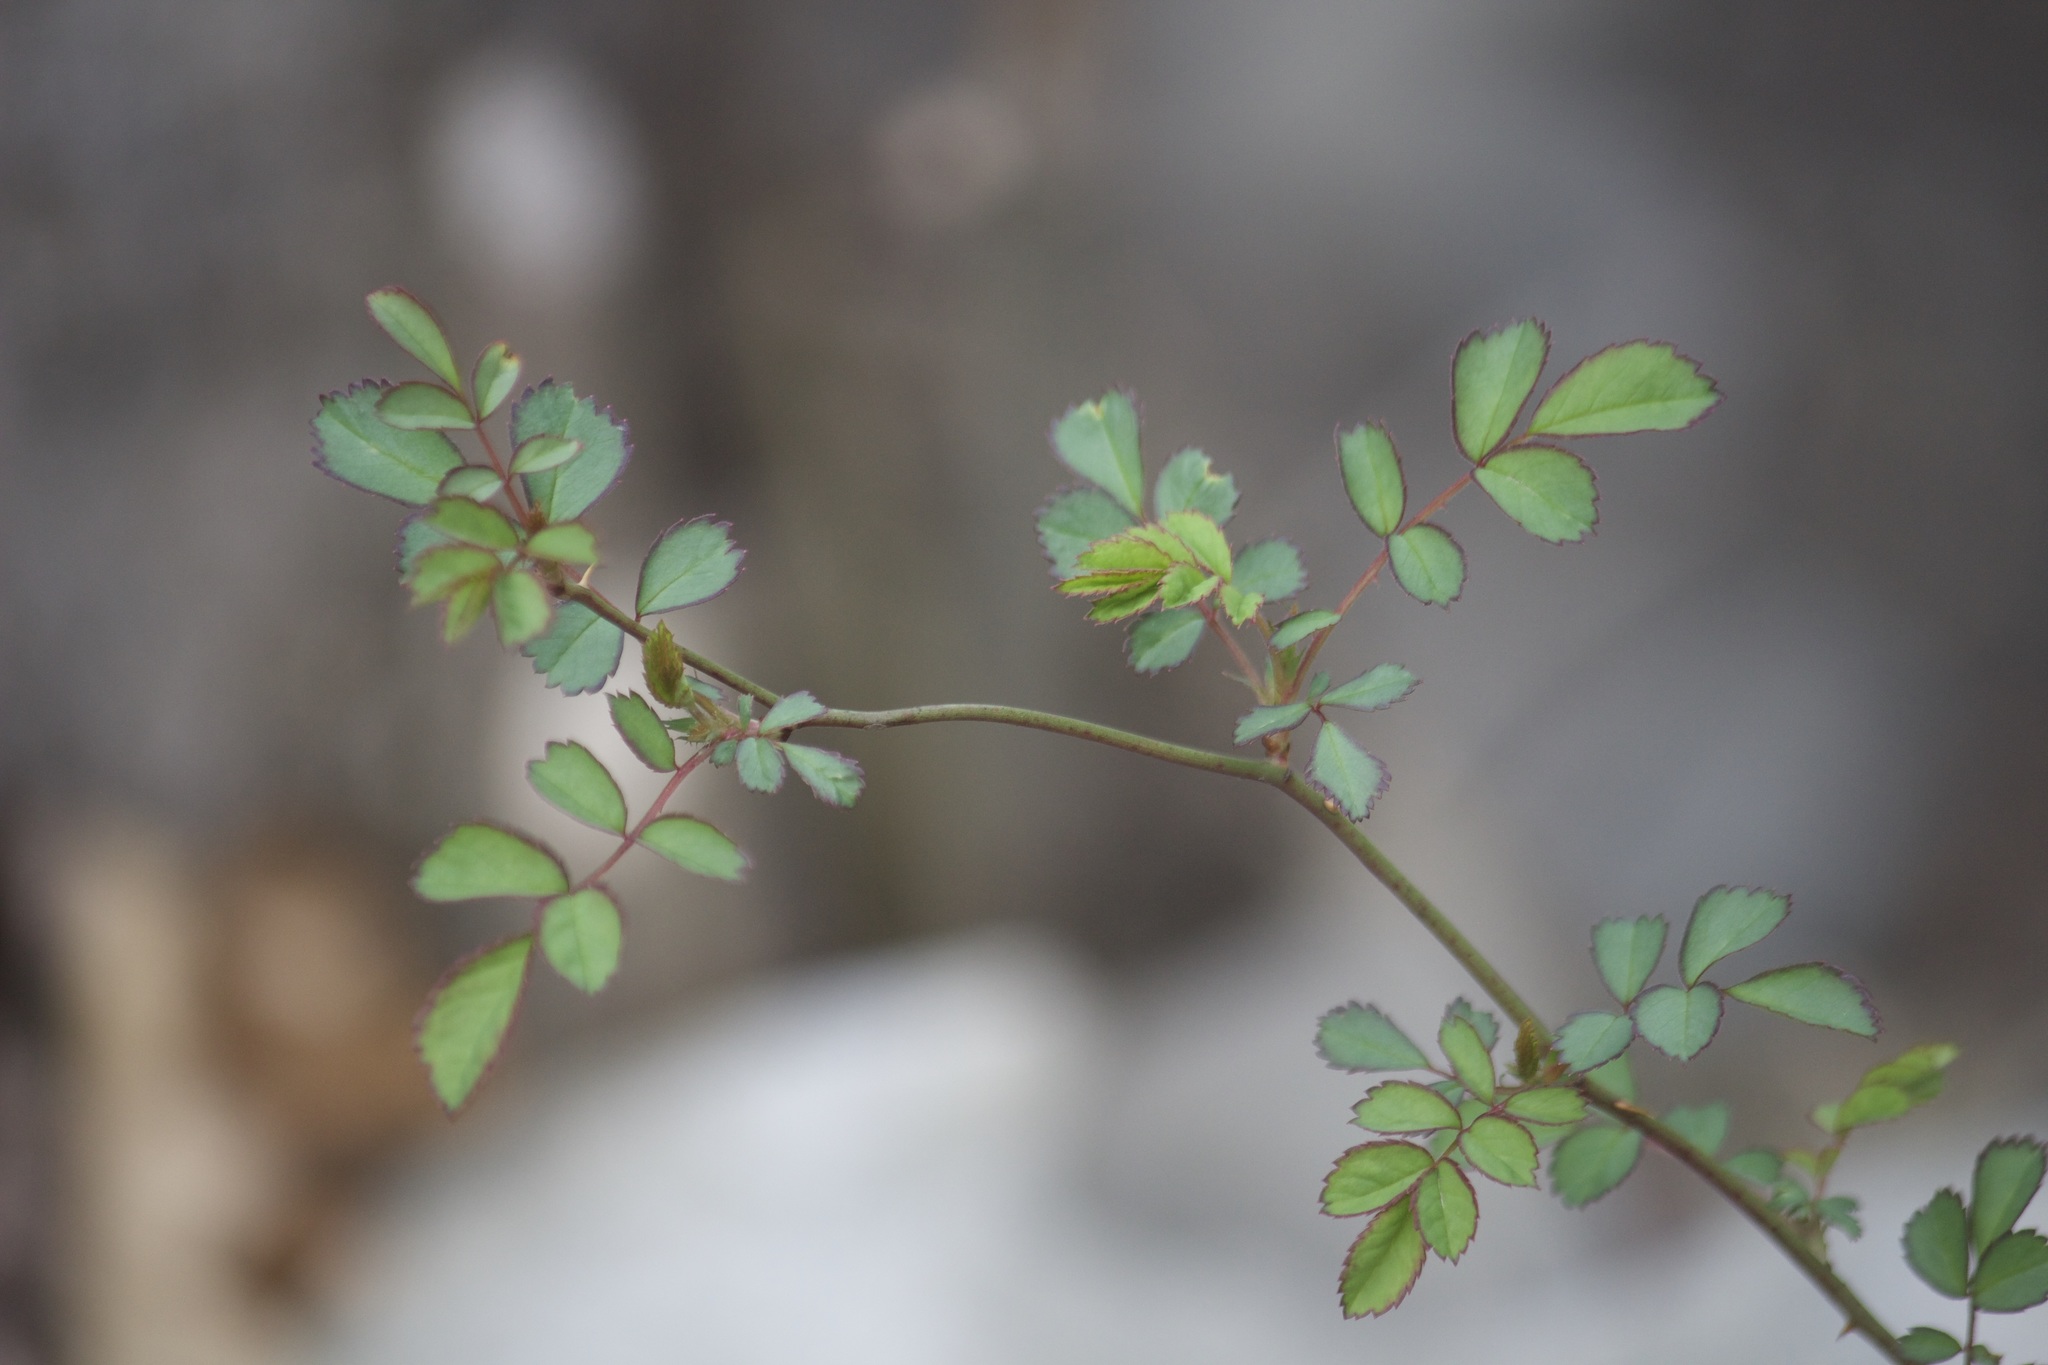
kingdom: Plantae
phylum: Tracheophyta
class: Magnoliopsida
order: Rosales
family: Rosaceae
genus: Rosa
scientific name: Rosa multiflora
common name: Multiflora rose
